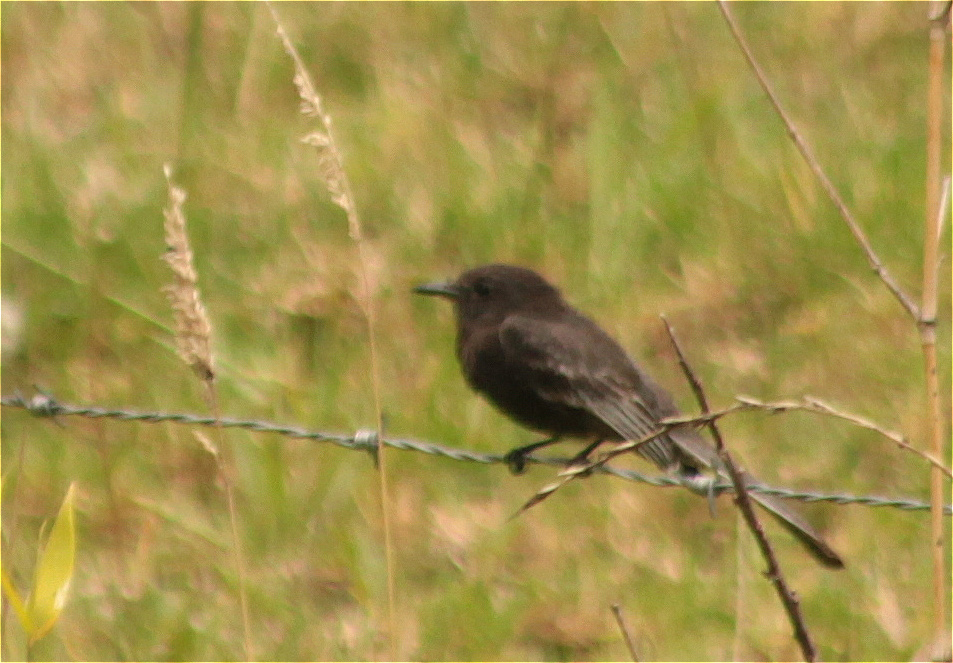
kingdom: Animalia
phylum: Chordata
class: Aves
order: Passeriformes
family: Tyrannidae
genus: Sayornis
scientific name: Sayornis nigricans
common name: Black phoebe
